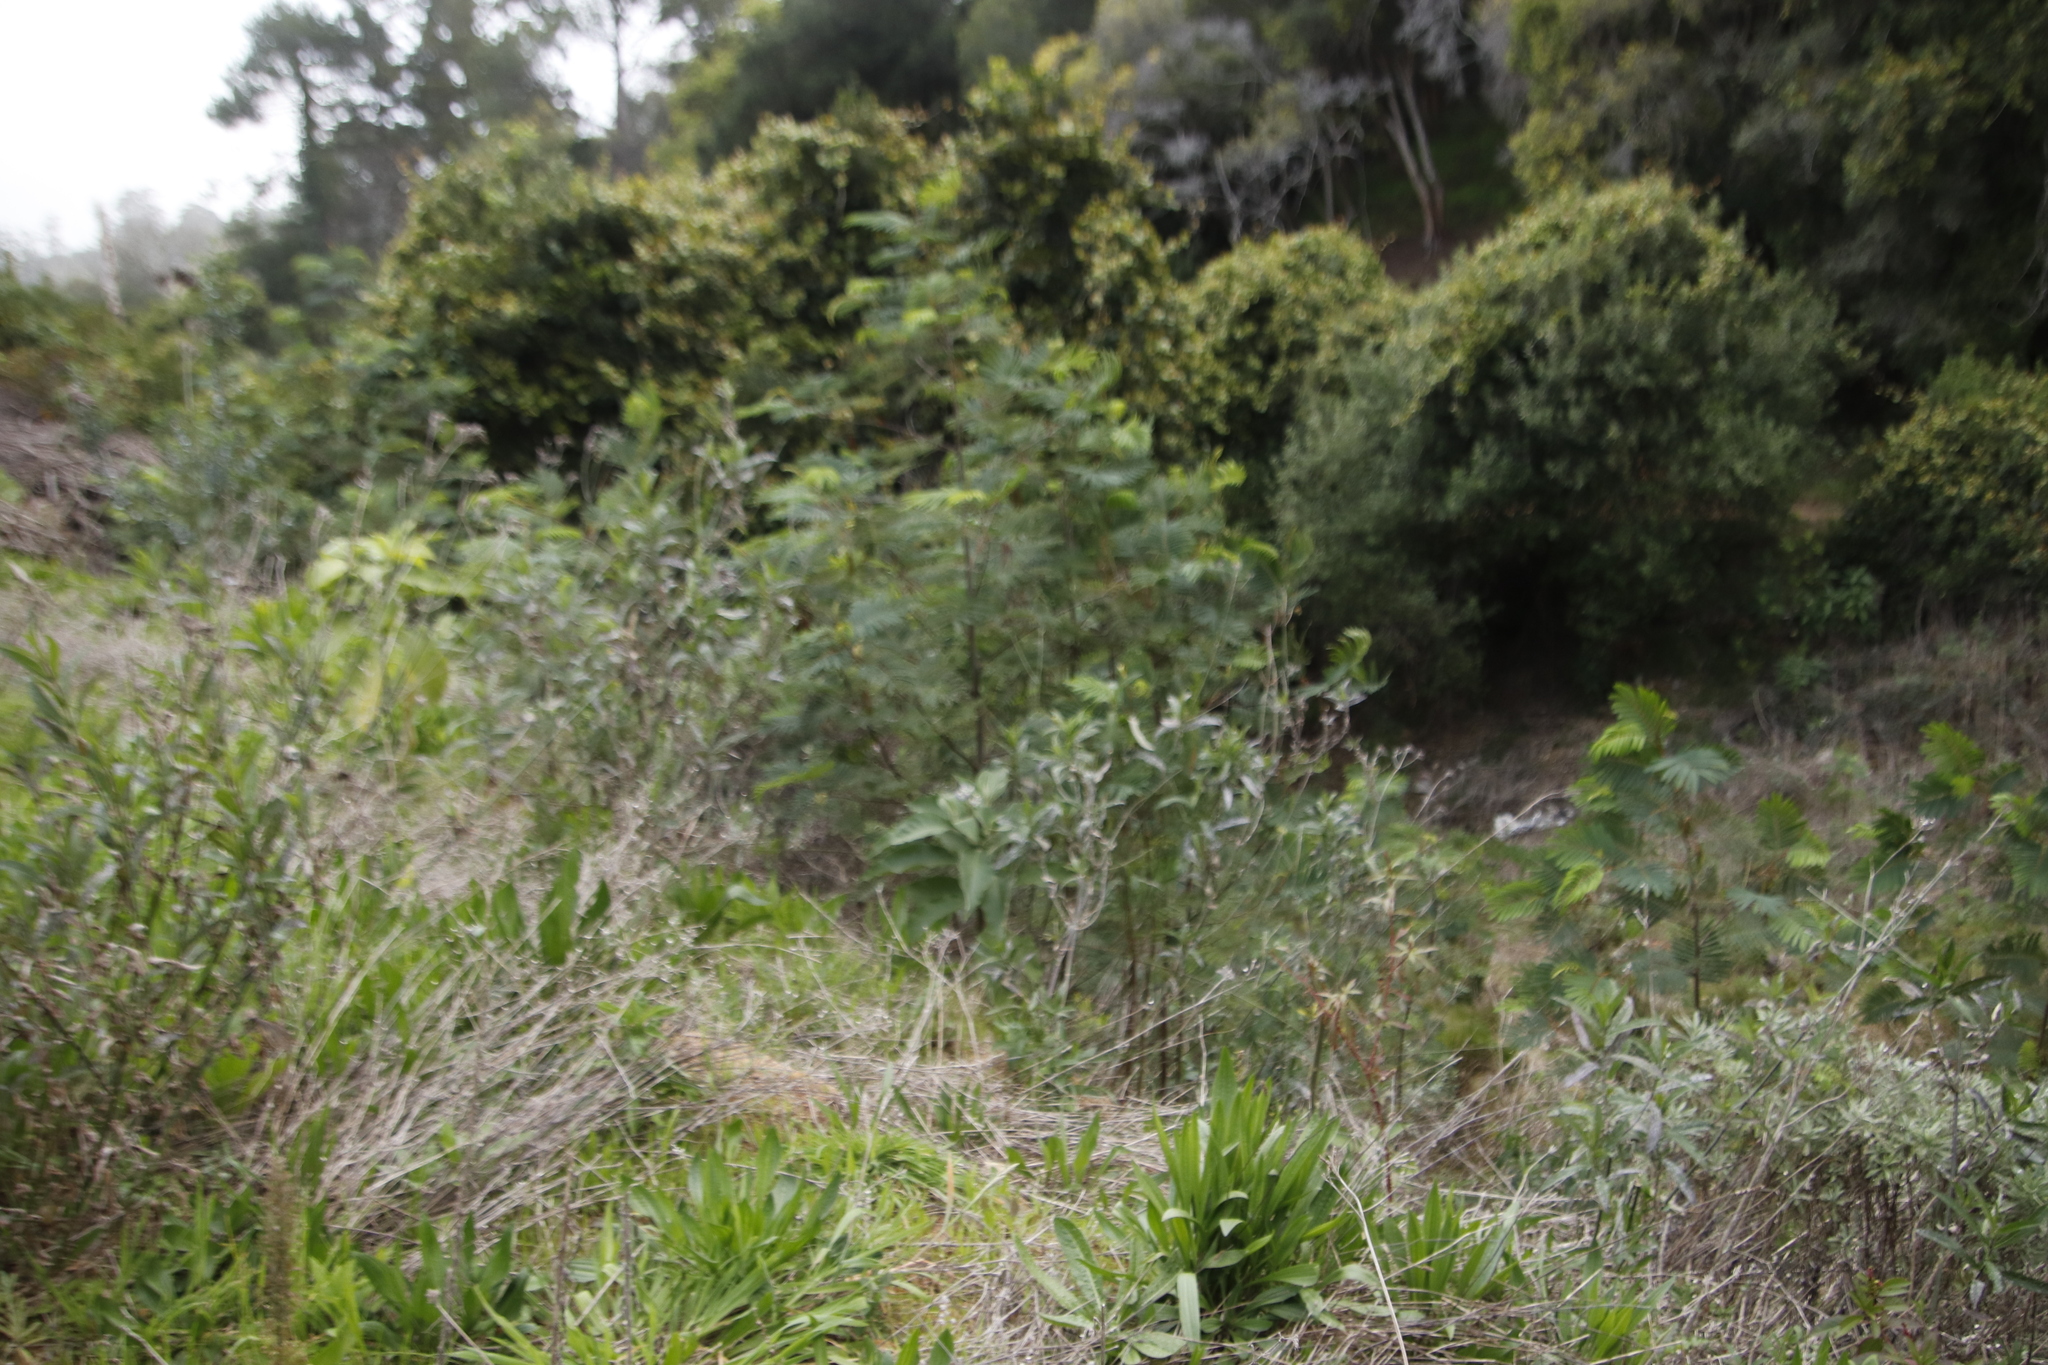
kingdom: Plantae
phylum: Tracheophyta
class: Magnoliopsida
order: Fabales
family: Fabaceae
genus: Paraserianthes
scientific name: Paraserianthes lophantha
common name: Plume albizia
